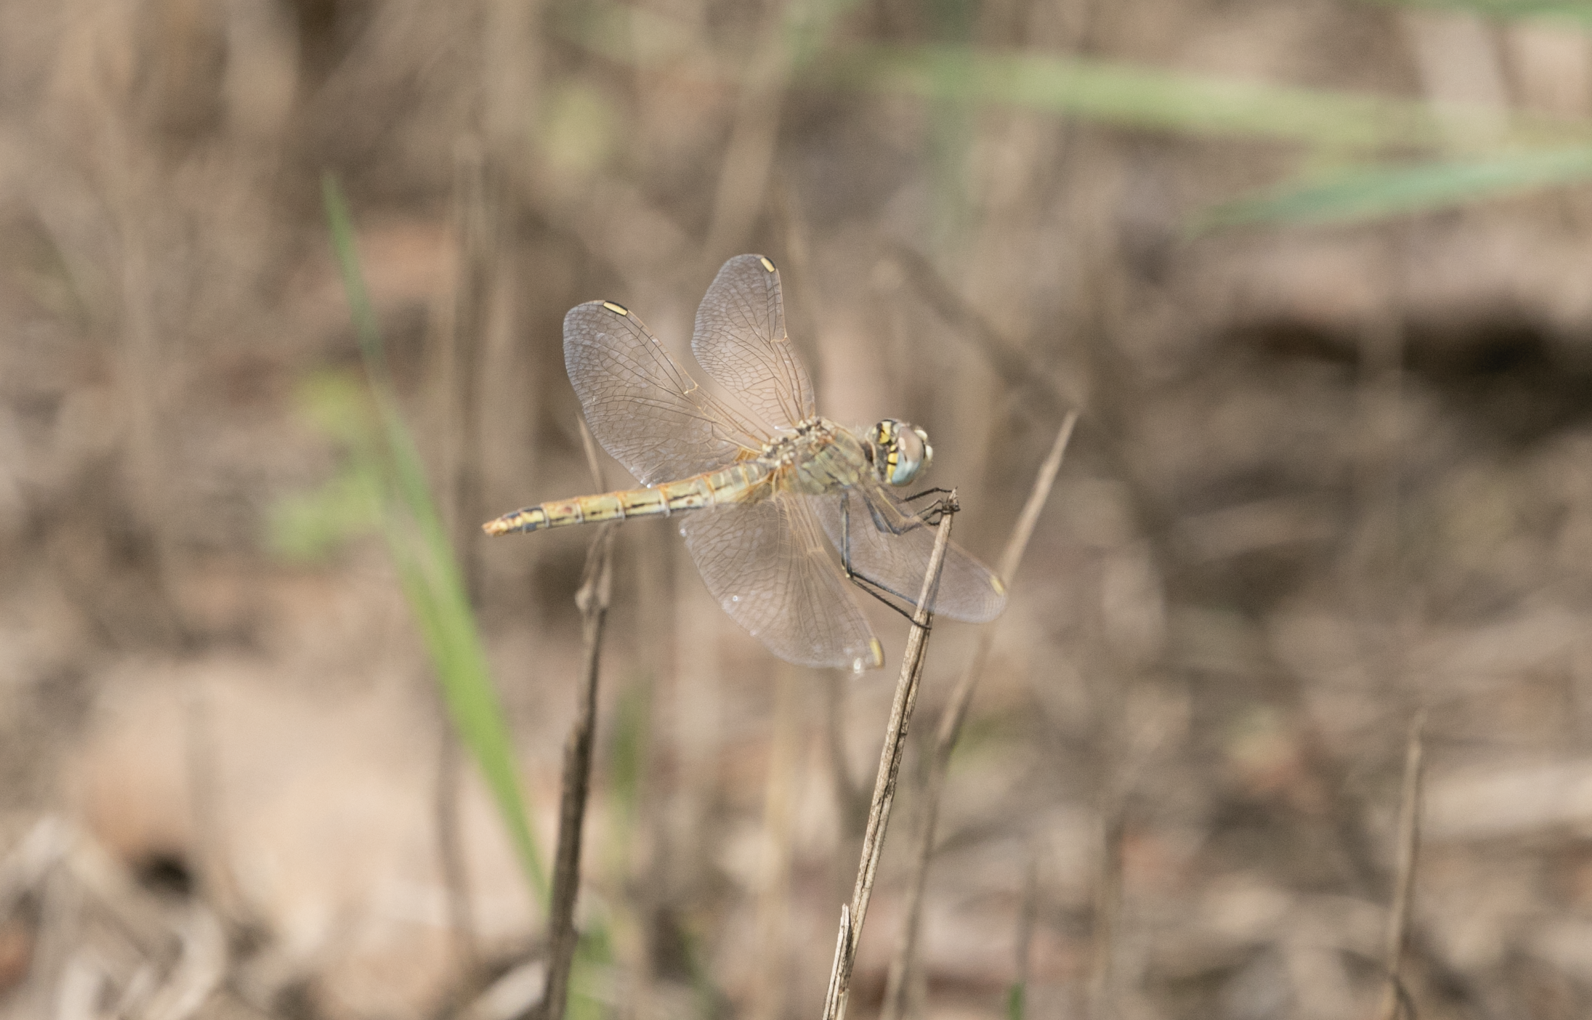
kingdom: Animalia
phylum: Arthropoda
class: Insecta
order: Odonata
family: Libellulidae
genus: Sympetrum
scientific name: Sympetrum fonscolombii
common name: Red-veined darter
